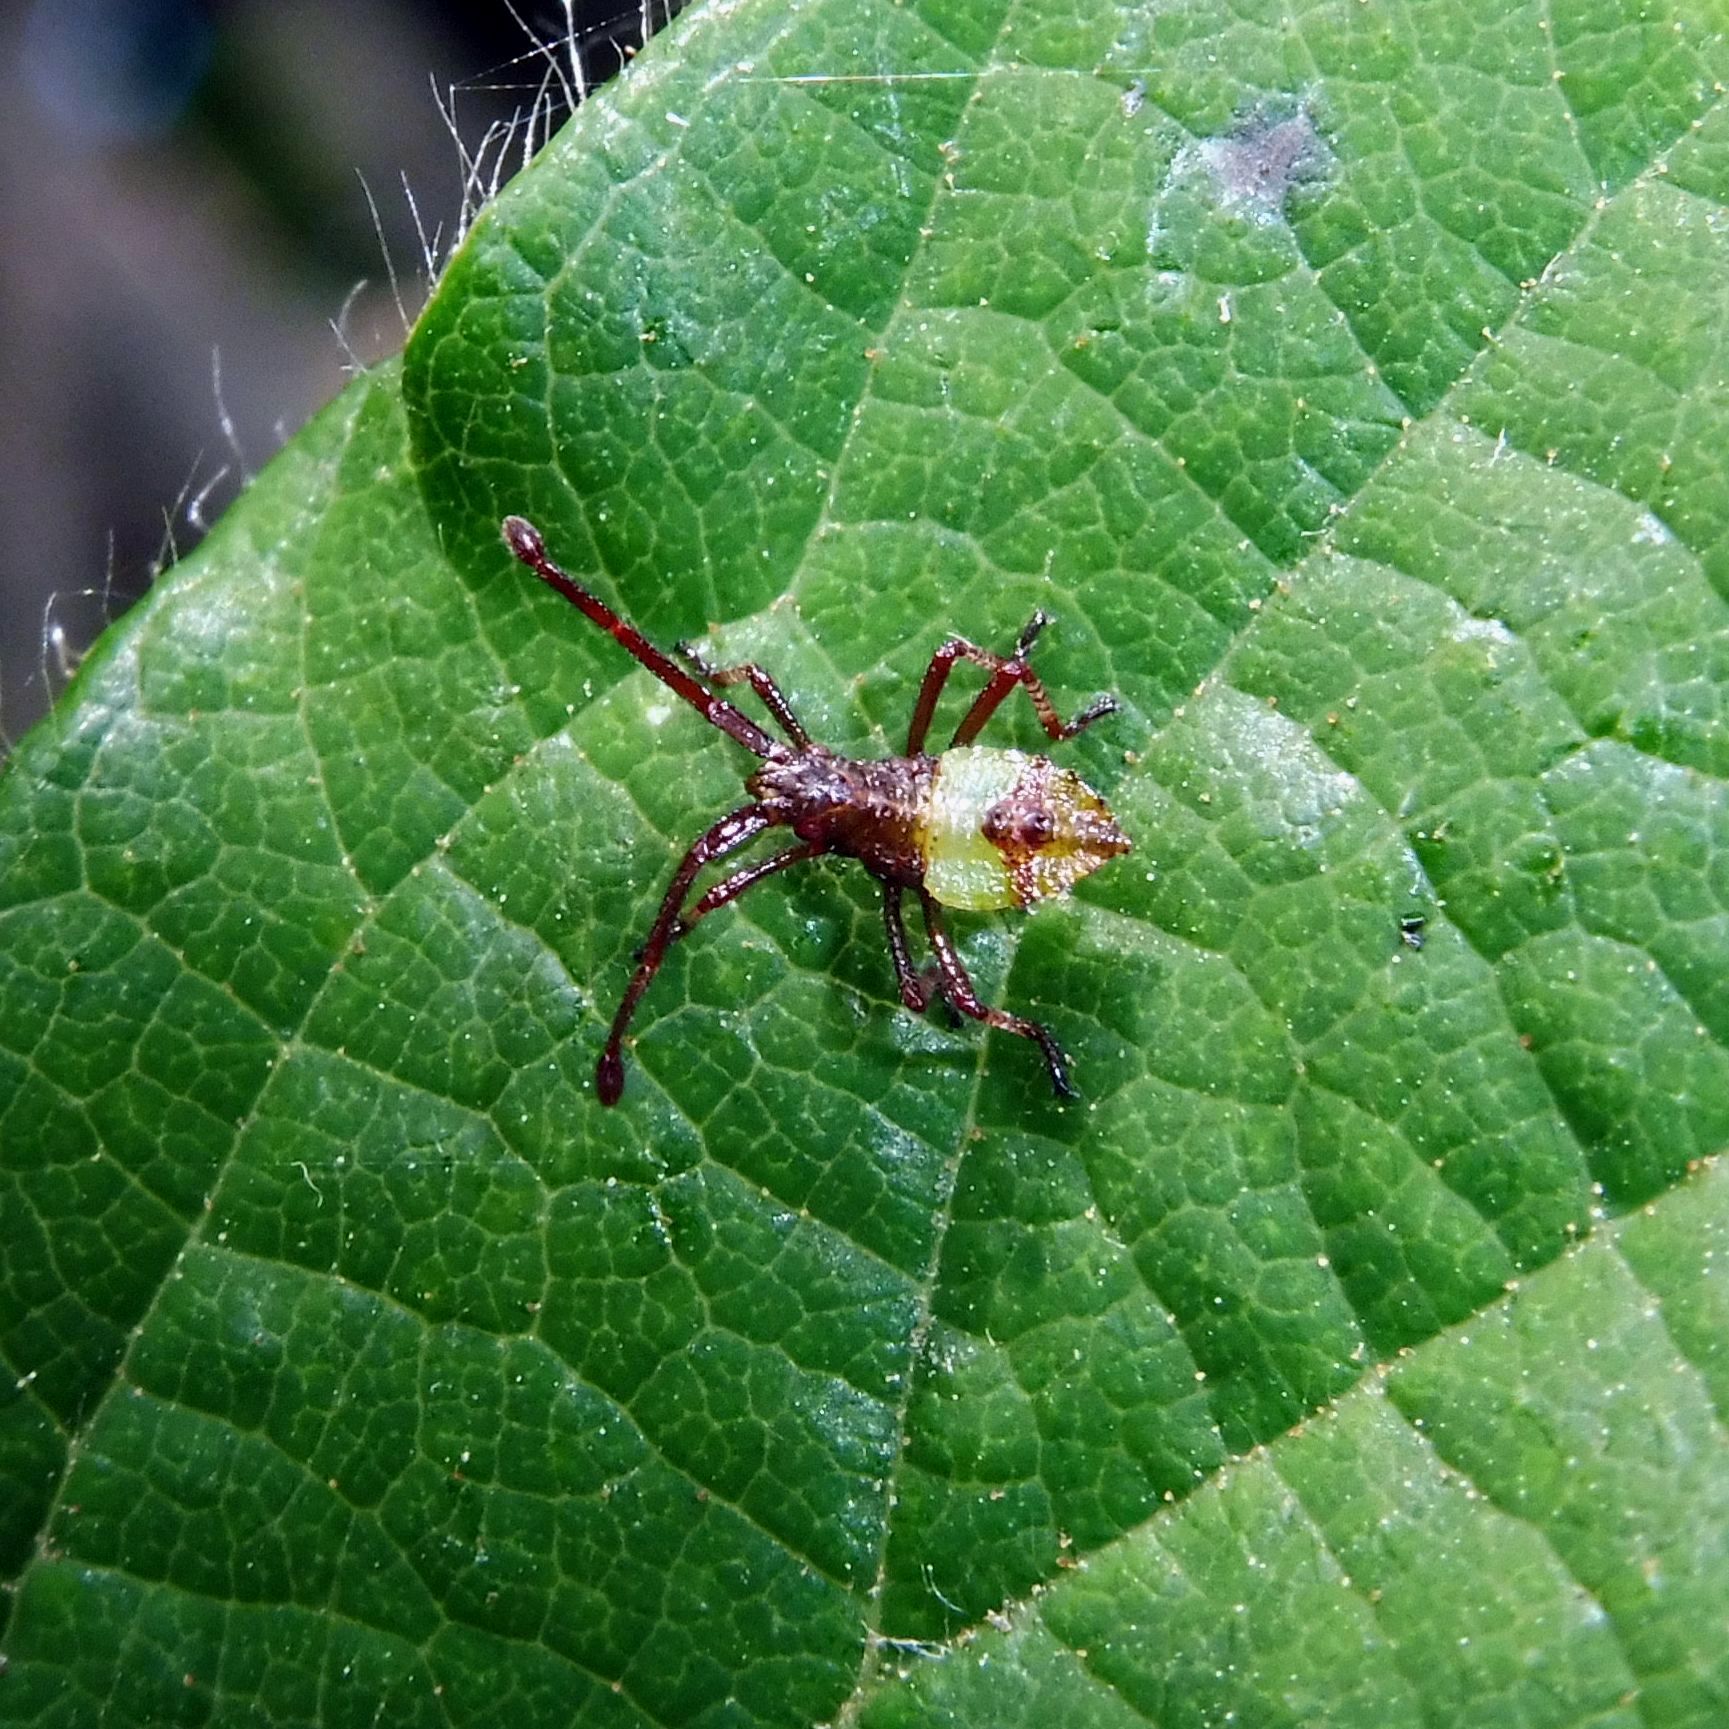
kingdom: Animalia
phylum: Arthropoda
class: Insecta
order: Hemiptera
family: Coreidae
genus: Gonocerus
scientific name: Gonocerus acuteangulatus
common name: Box bug
